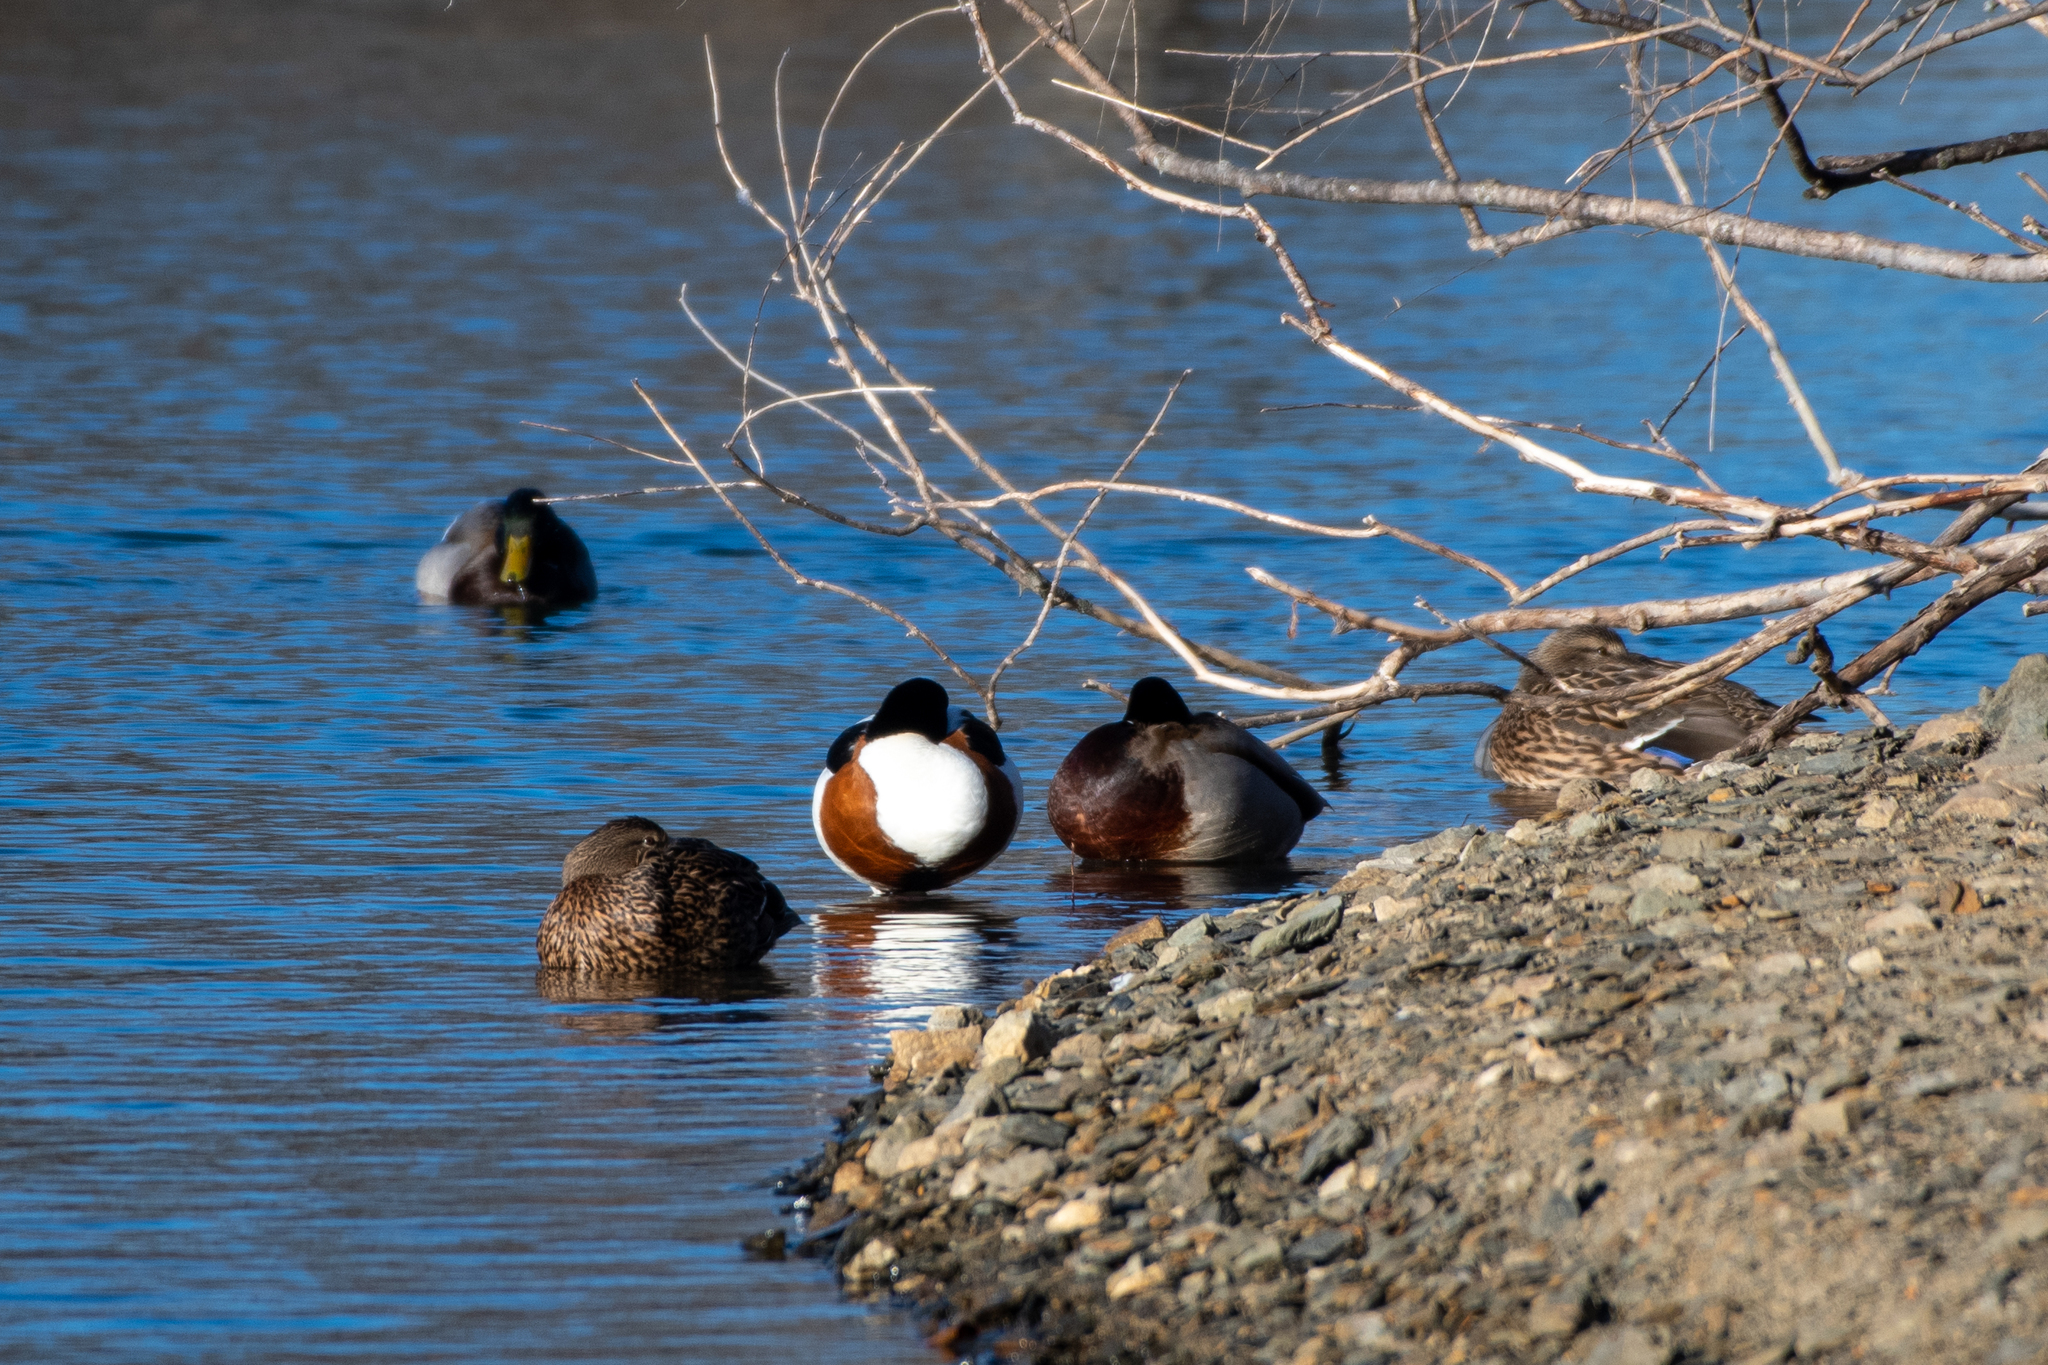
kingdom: Animalia
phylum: Chordata
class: Aves
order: Anseriformes
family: Anatidae
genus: Tadorna
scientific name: Tadorna tadorna
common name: Common shelduck
